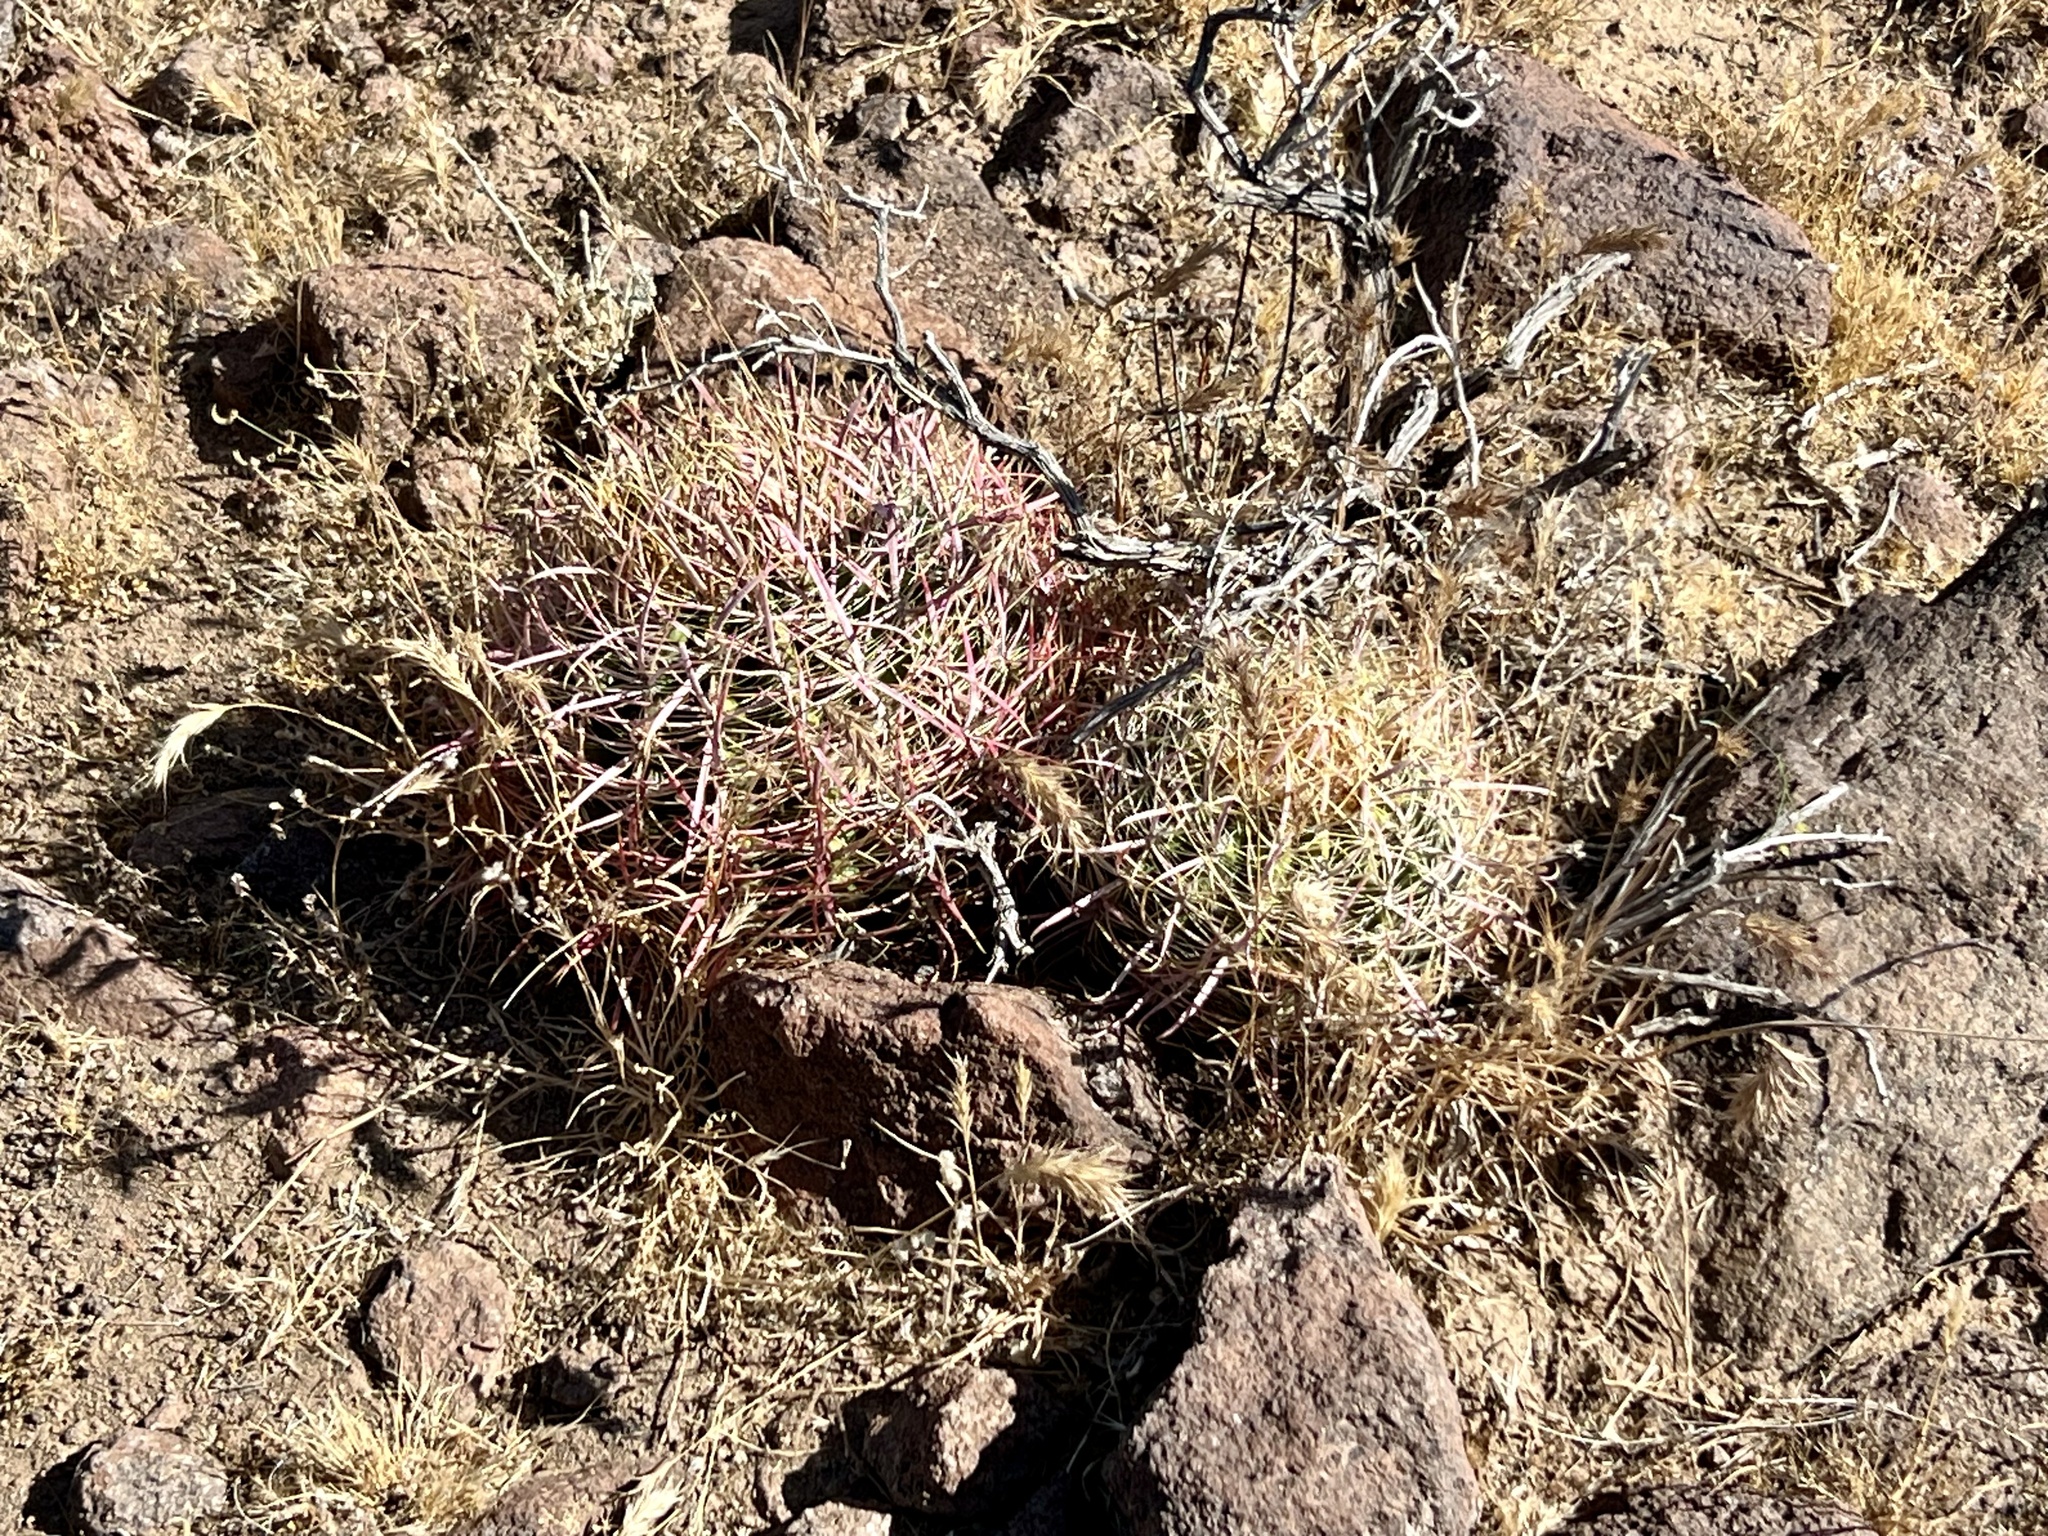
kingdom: Plantae
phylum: Tracheophyta
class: Magnoliopsida
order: Caryophyllales
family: Cactaceae
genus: Ferocactus
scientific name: Ferocactus cylindraceus
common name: California barrel cactus
